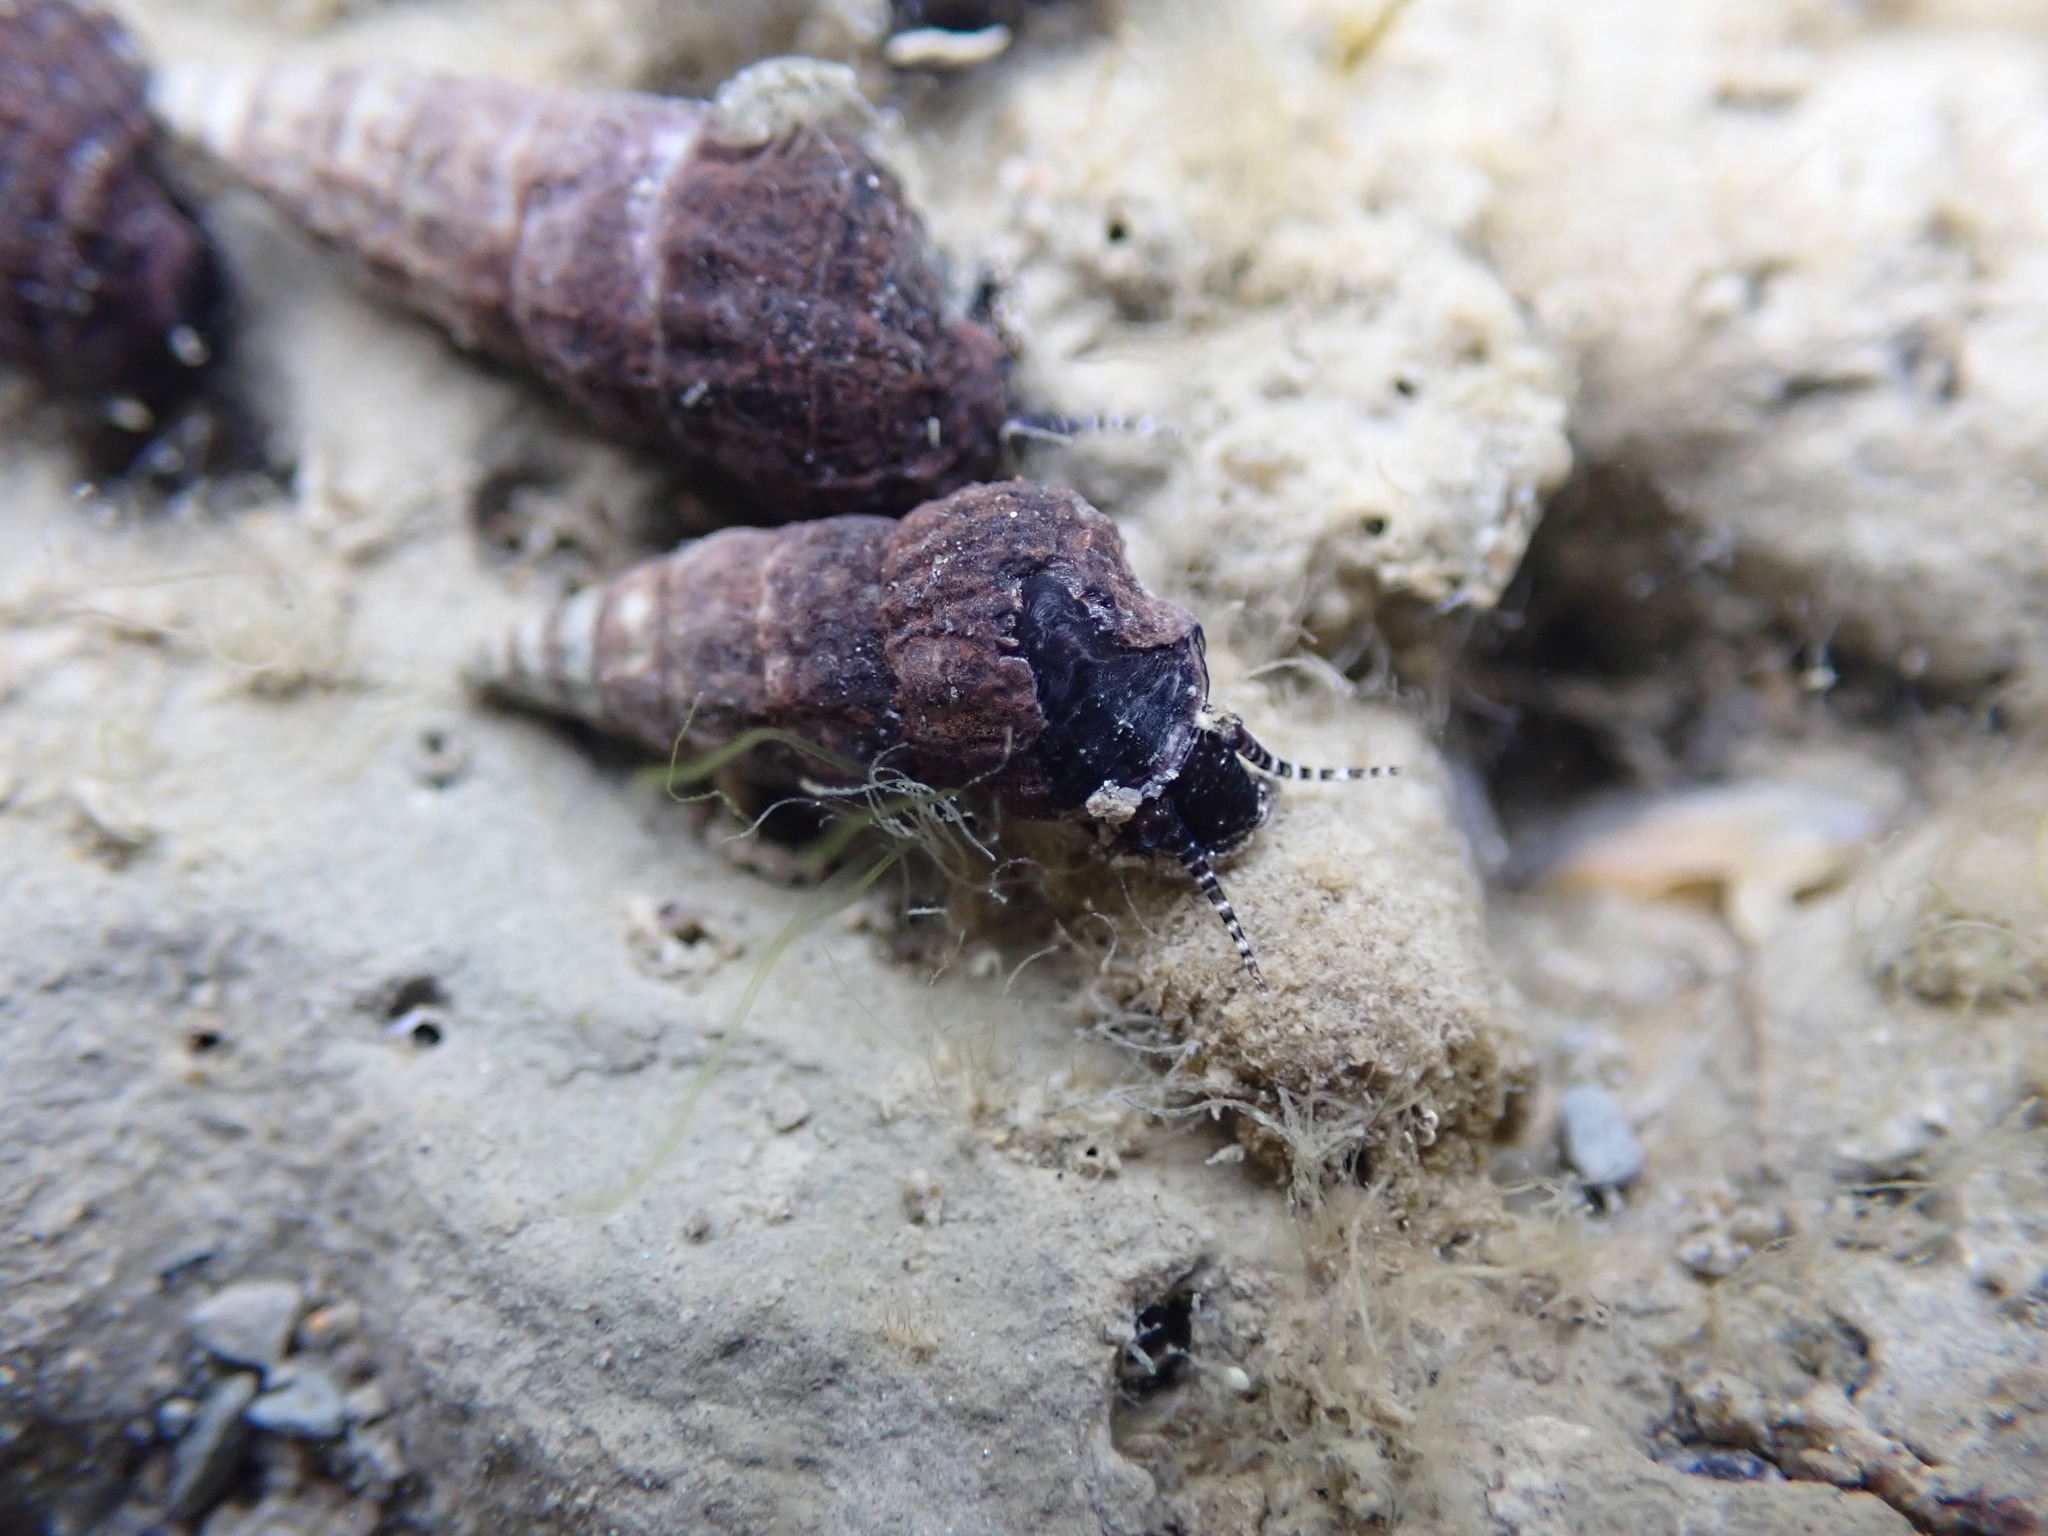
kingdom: Animalia
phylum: Mollusca
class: Gastropoda
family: Batillariidae
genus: Zeacumantus
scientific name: Zeacumantus subcarinatus
